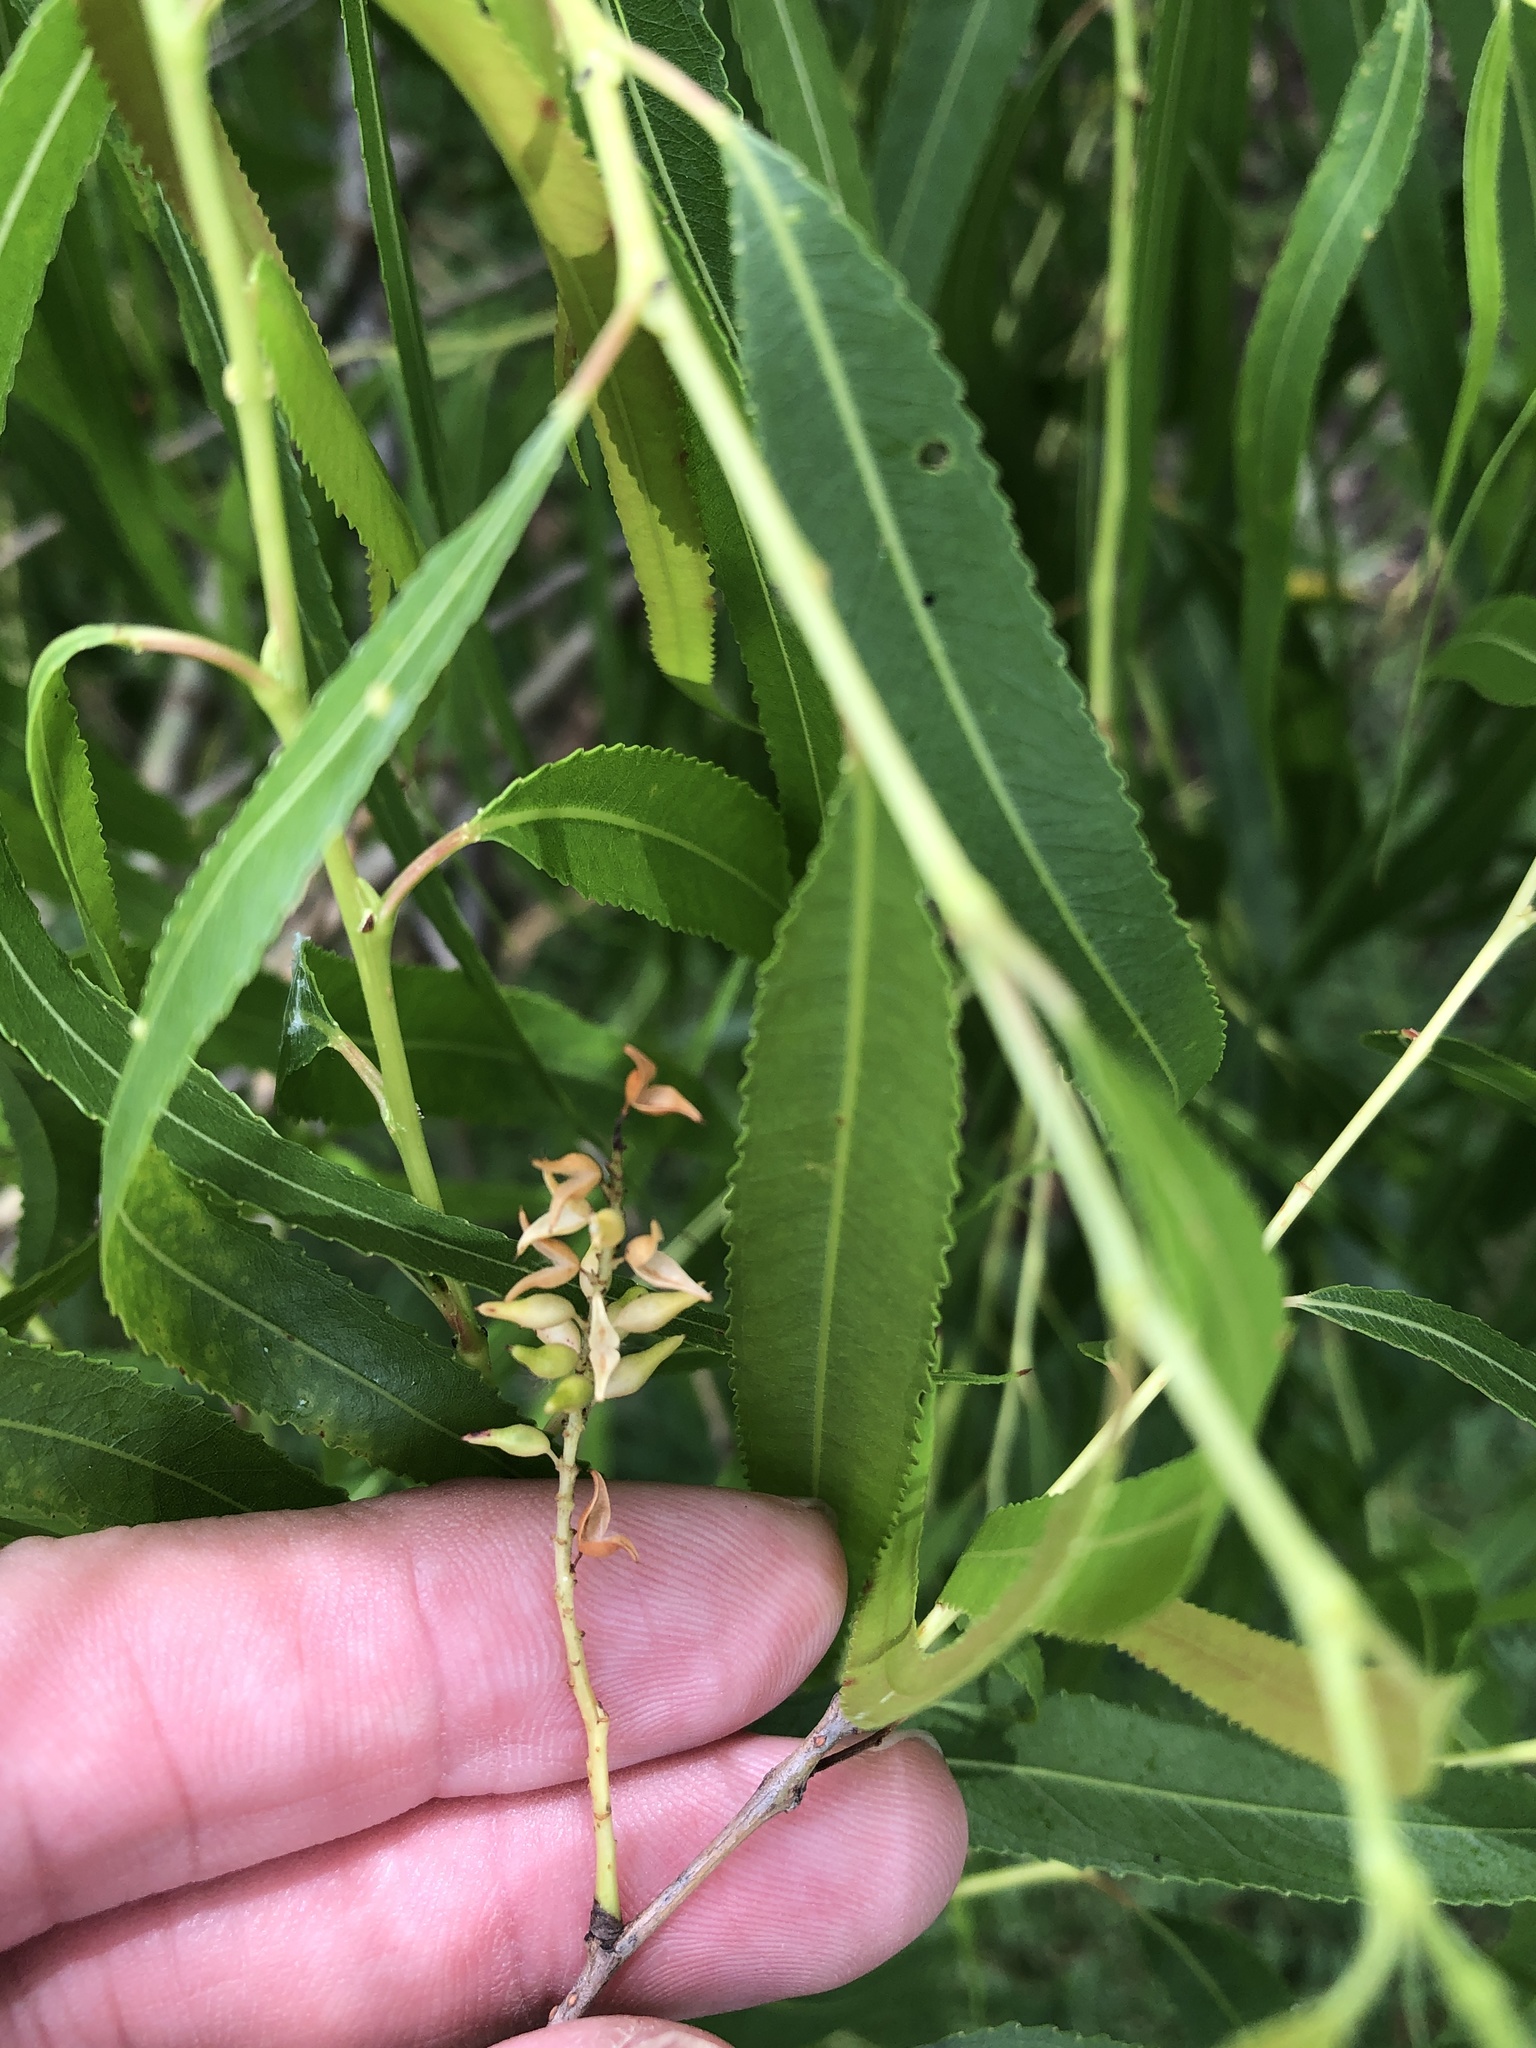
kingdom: Plantae
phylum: Tracheophyta
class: Magnoliopsida
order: Malpighiales
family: Salicaceae
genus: Salix
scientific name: Salix nigra
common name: Black willow
